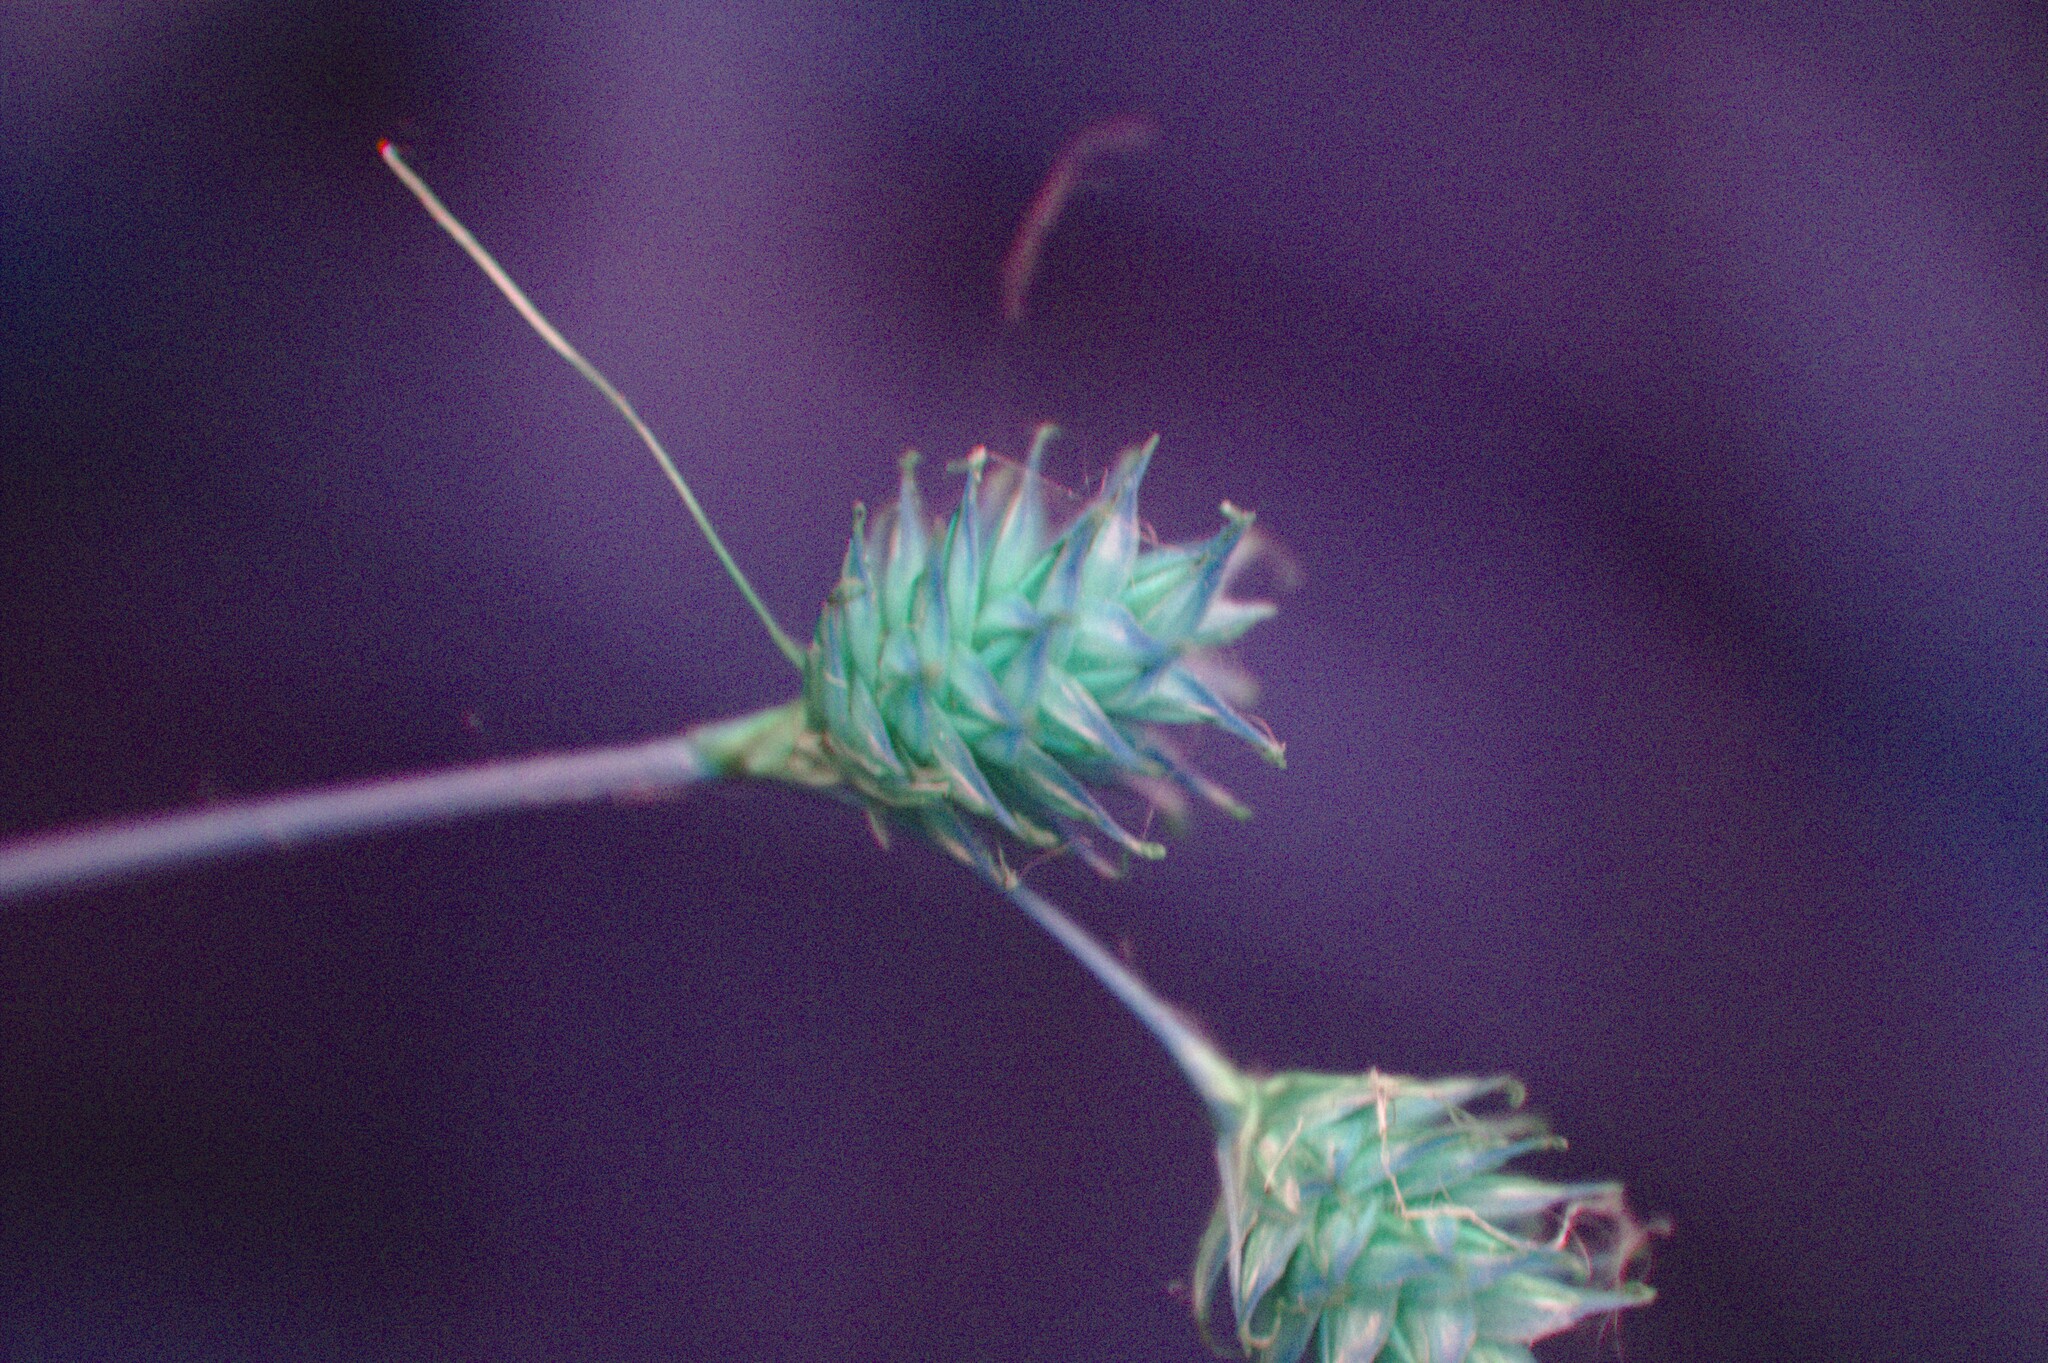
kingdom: Plantae
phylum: Tracheophyta
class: Liliopsida
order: Poales
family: Cyperaceae
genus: Carex
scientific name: Carex tenera
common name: Broad-fruited sedge
